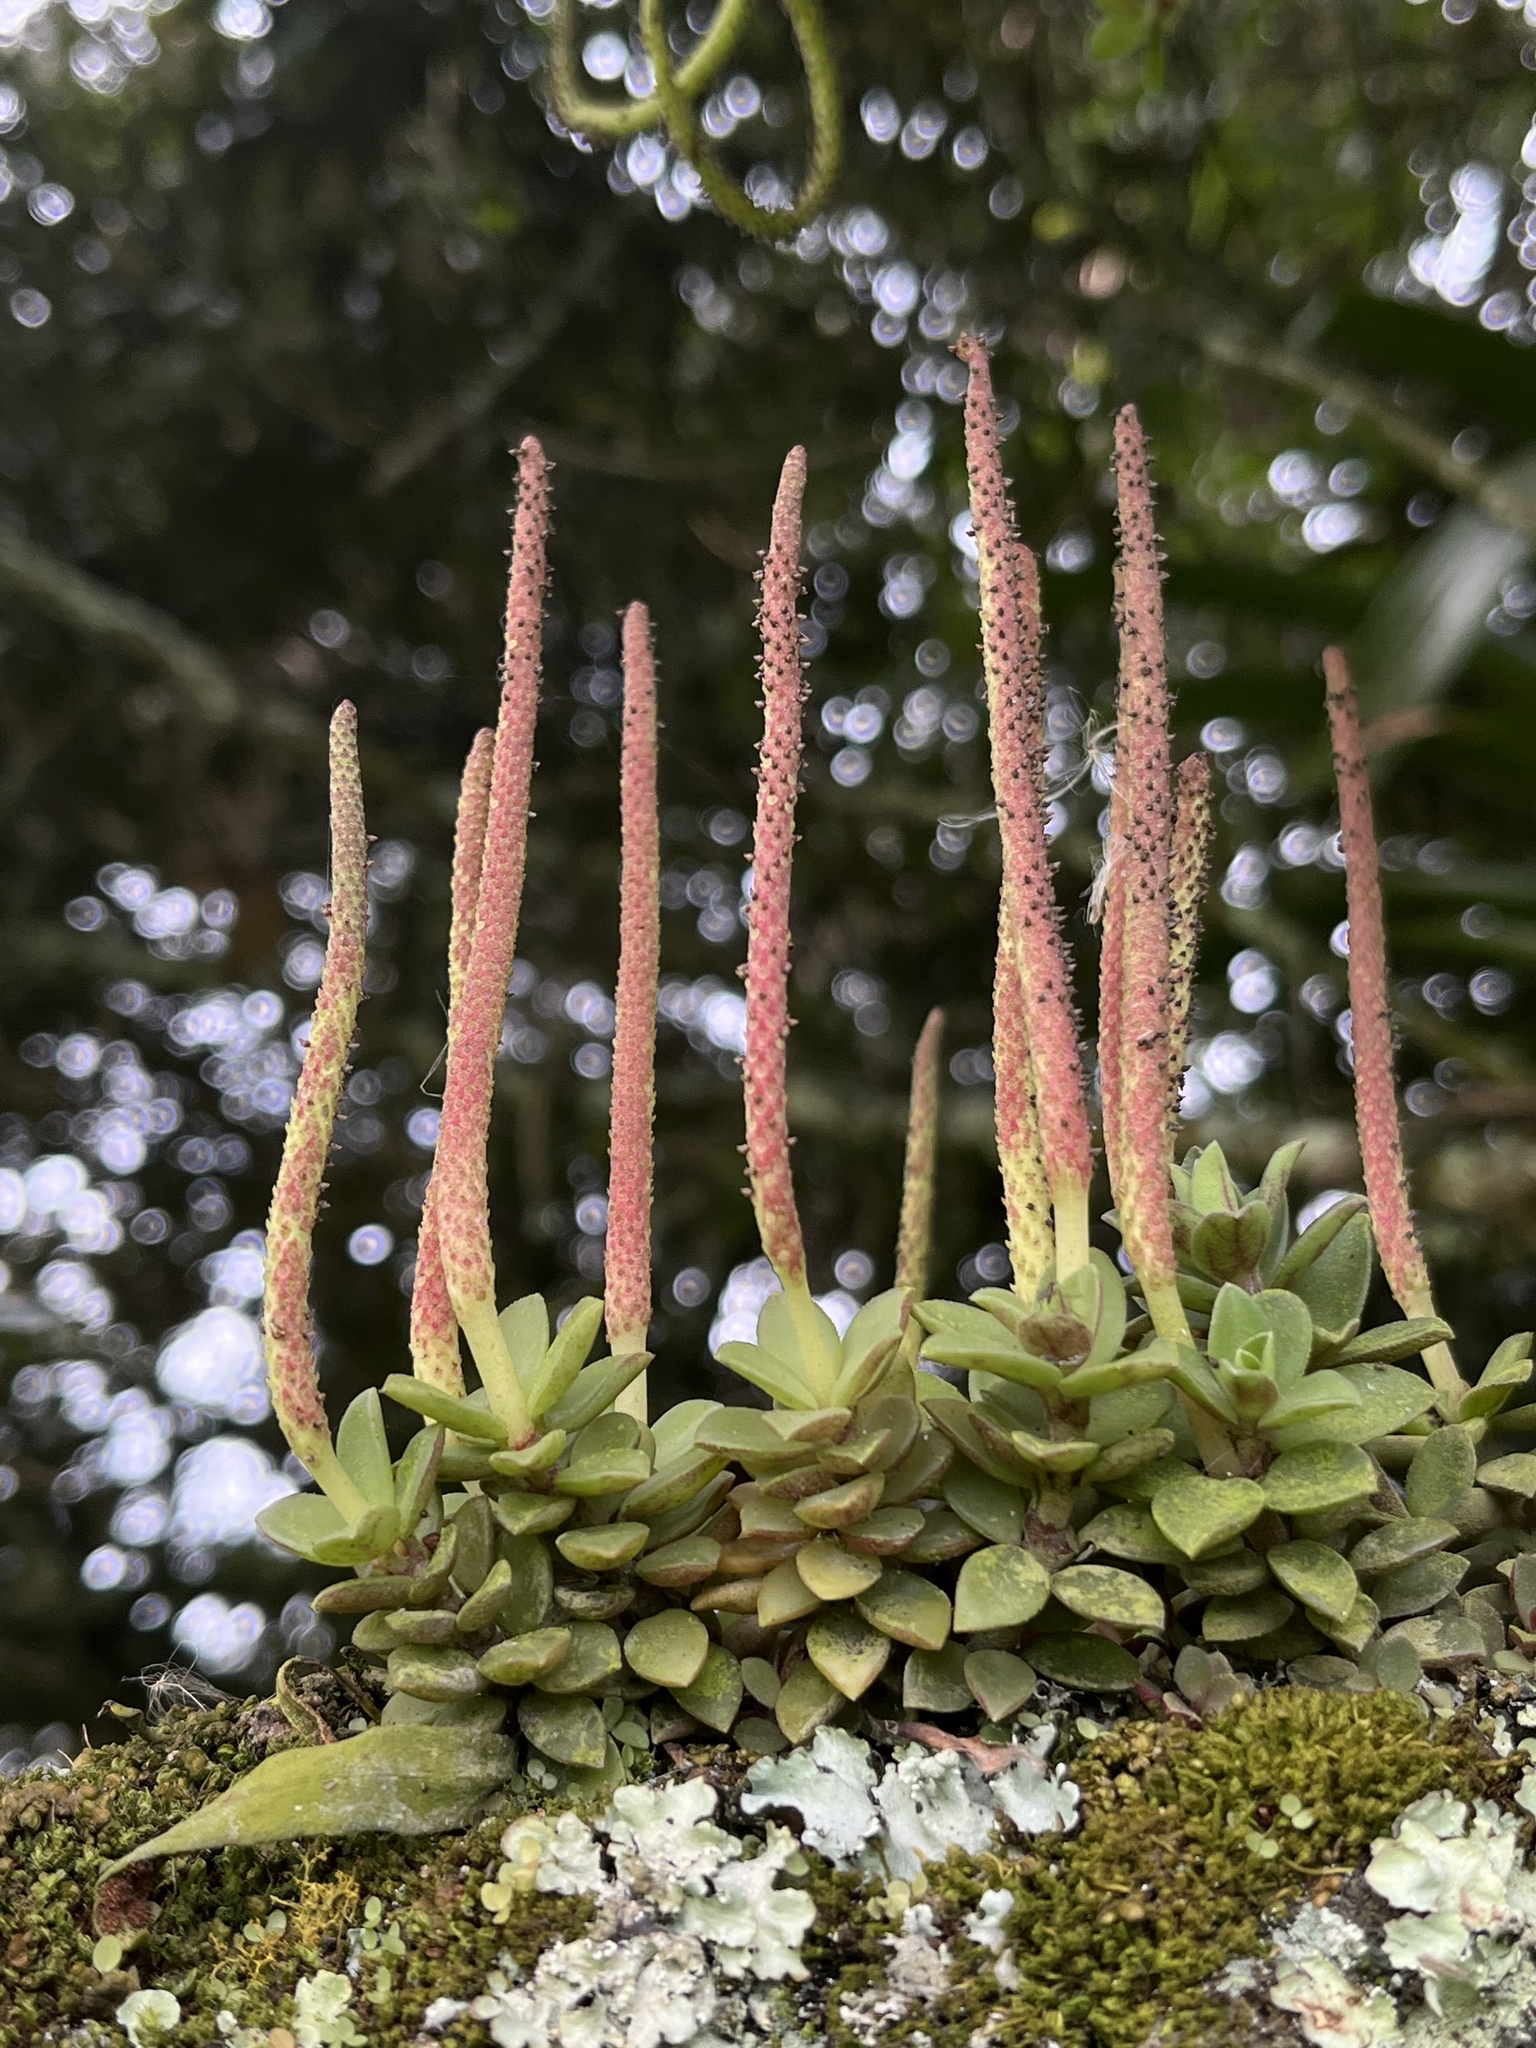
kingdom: Plantae
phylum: Tracheophyta
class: Magnoliopsida
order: Piperales
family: Piperaceae
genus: Peperomia
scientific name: Peperomia hartwegiana
